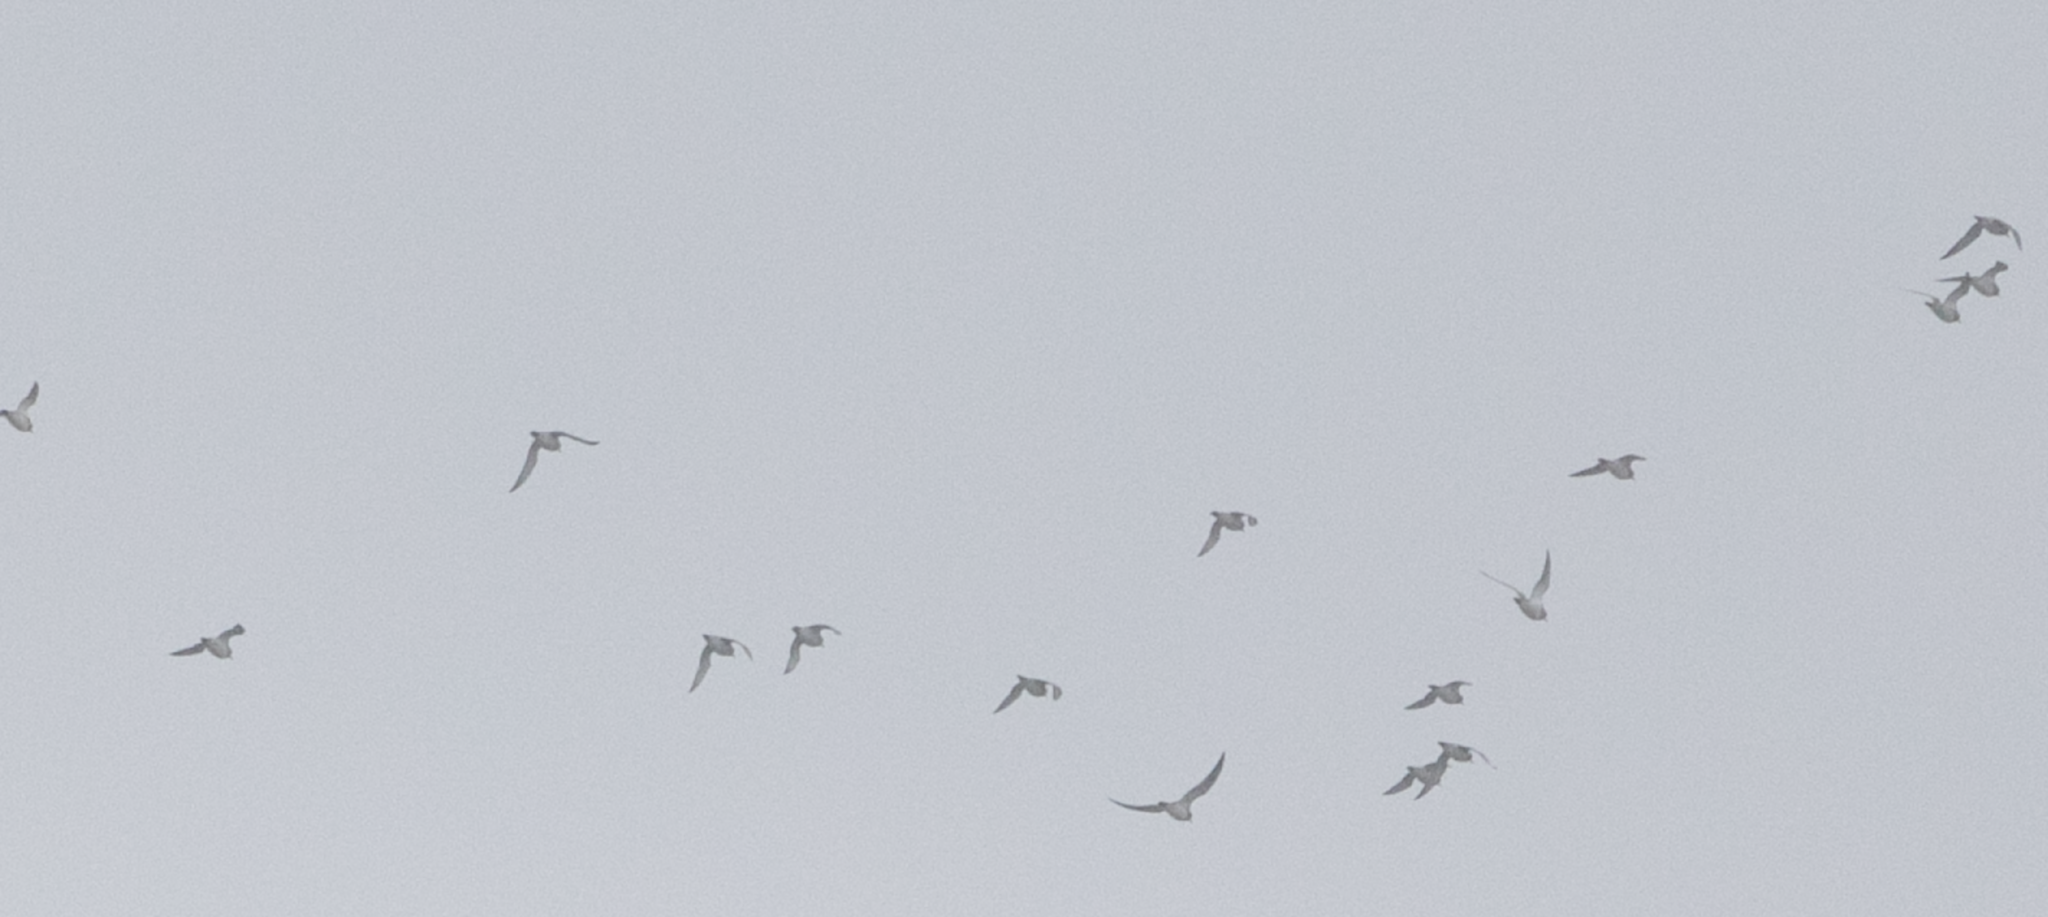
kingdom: Animalia
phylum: Chordata
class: Aves
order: Charadriiformes
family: Charadriidae
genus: Pluvialis
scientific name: Pluvialis apricaria
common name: European golden plover
